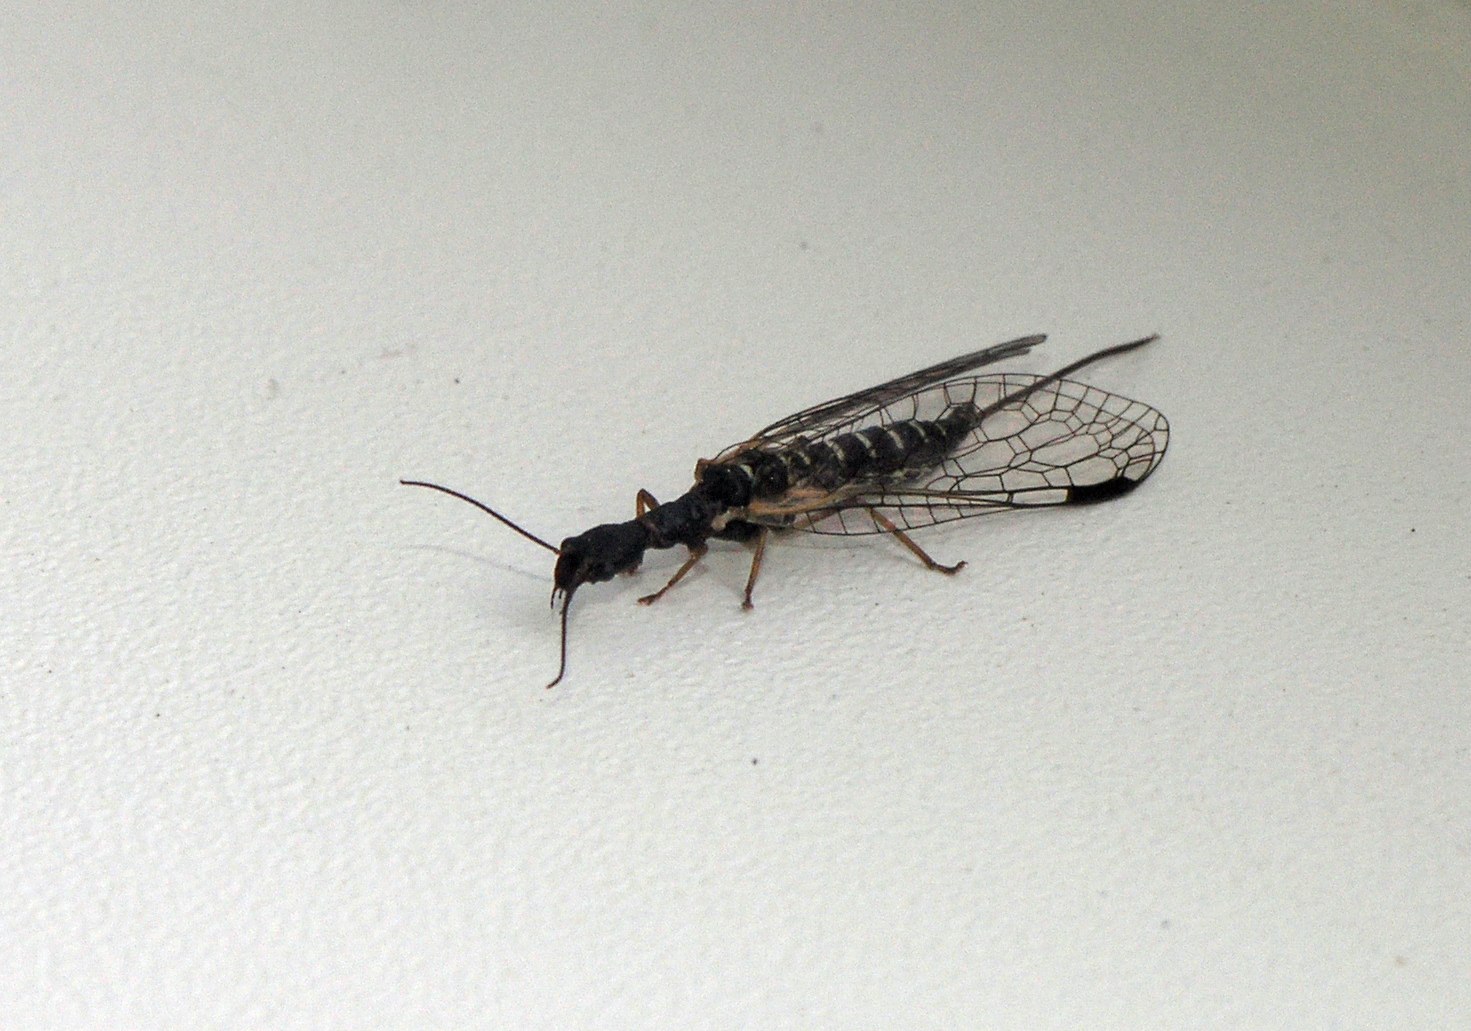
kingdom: Animalia
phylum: Arthropoda
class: Insecta
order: Raphidioptera
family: Inocelliidae
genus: Inocellia
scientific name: Inocellia crassicornis
